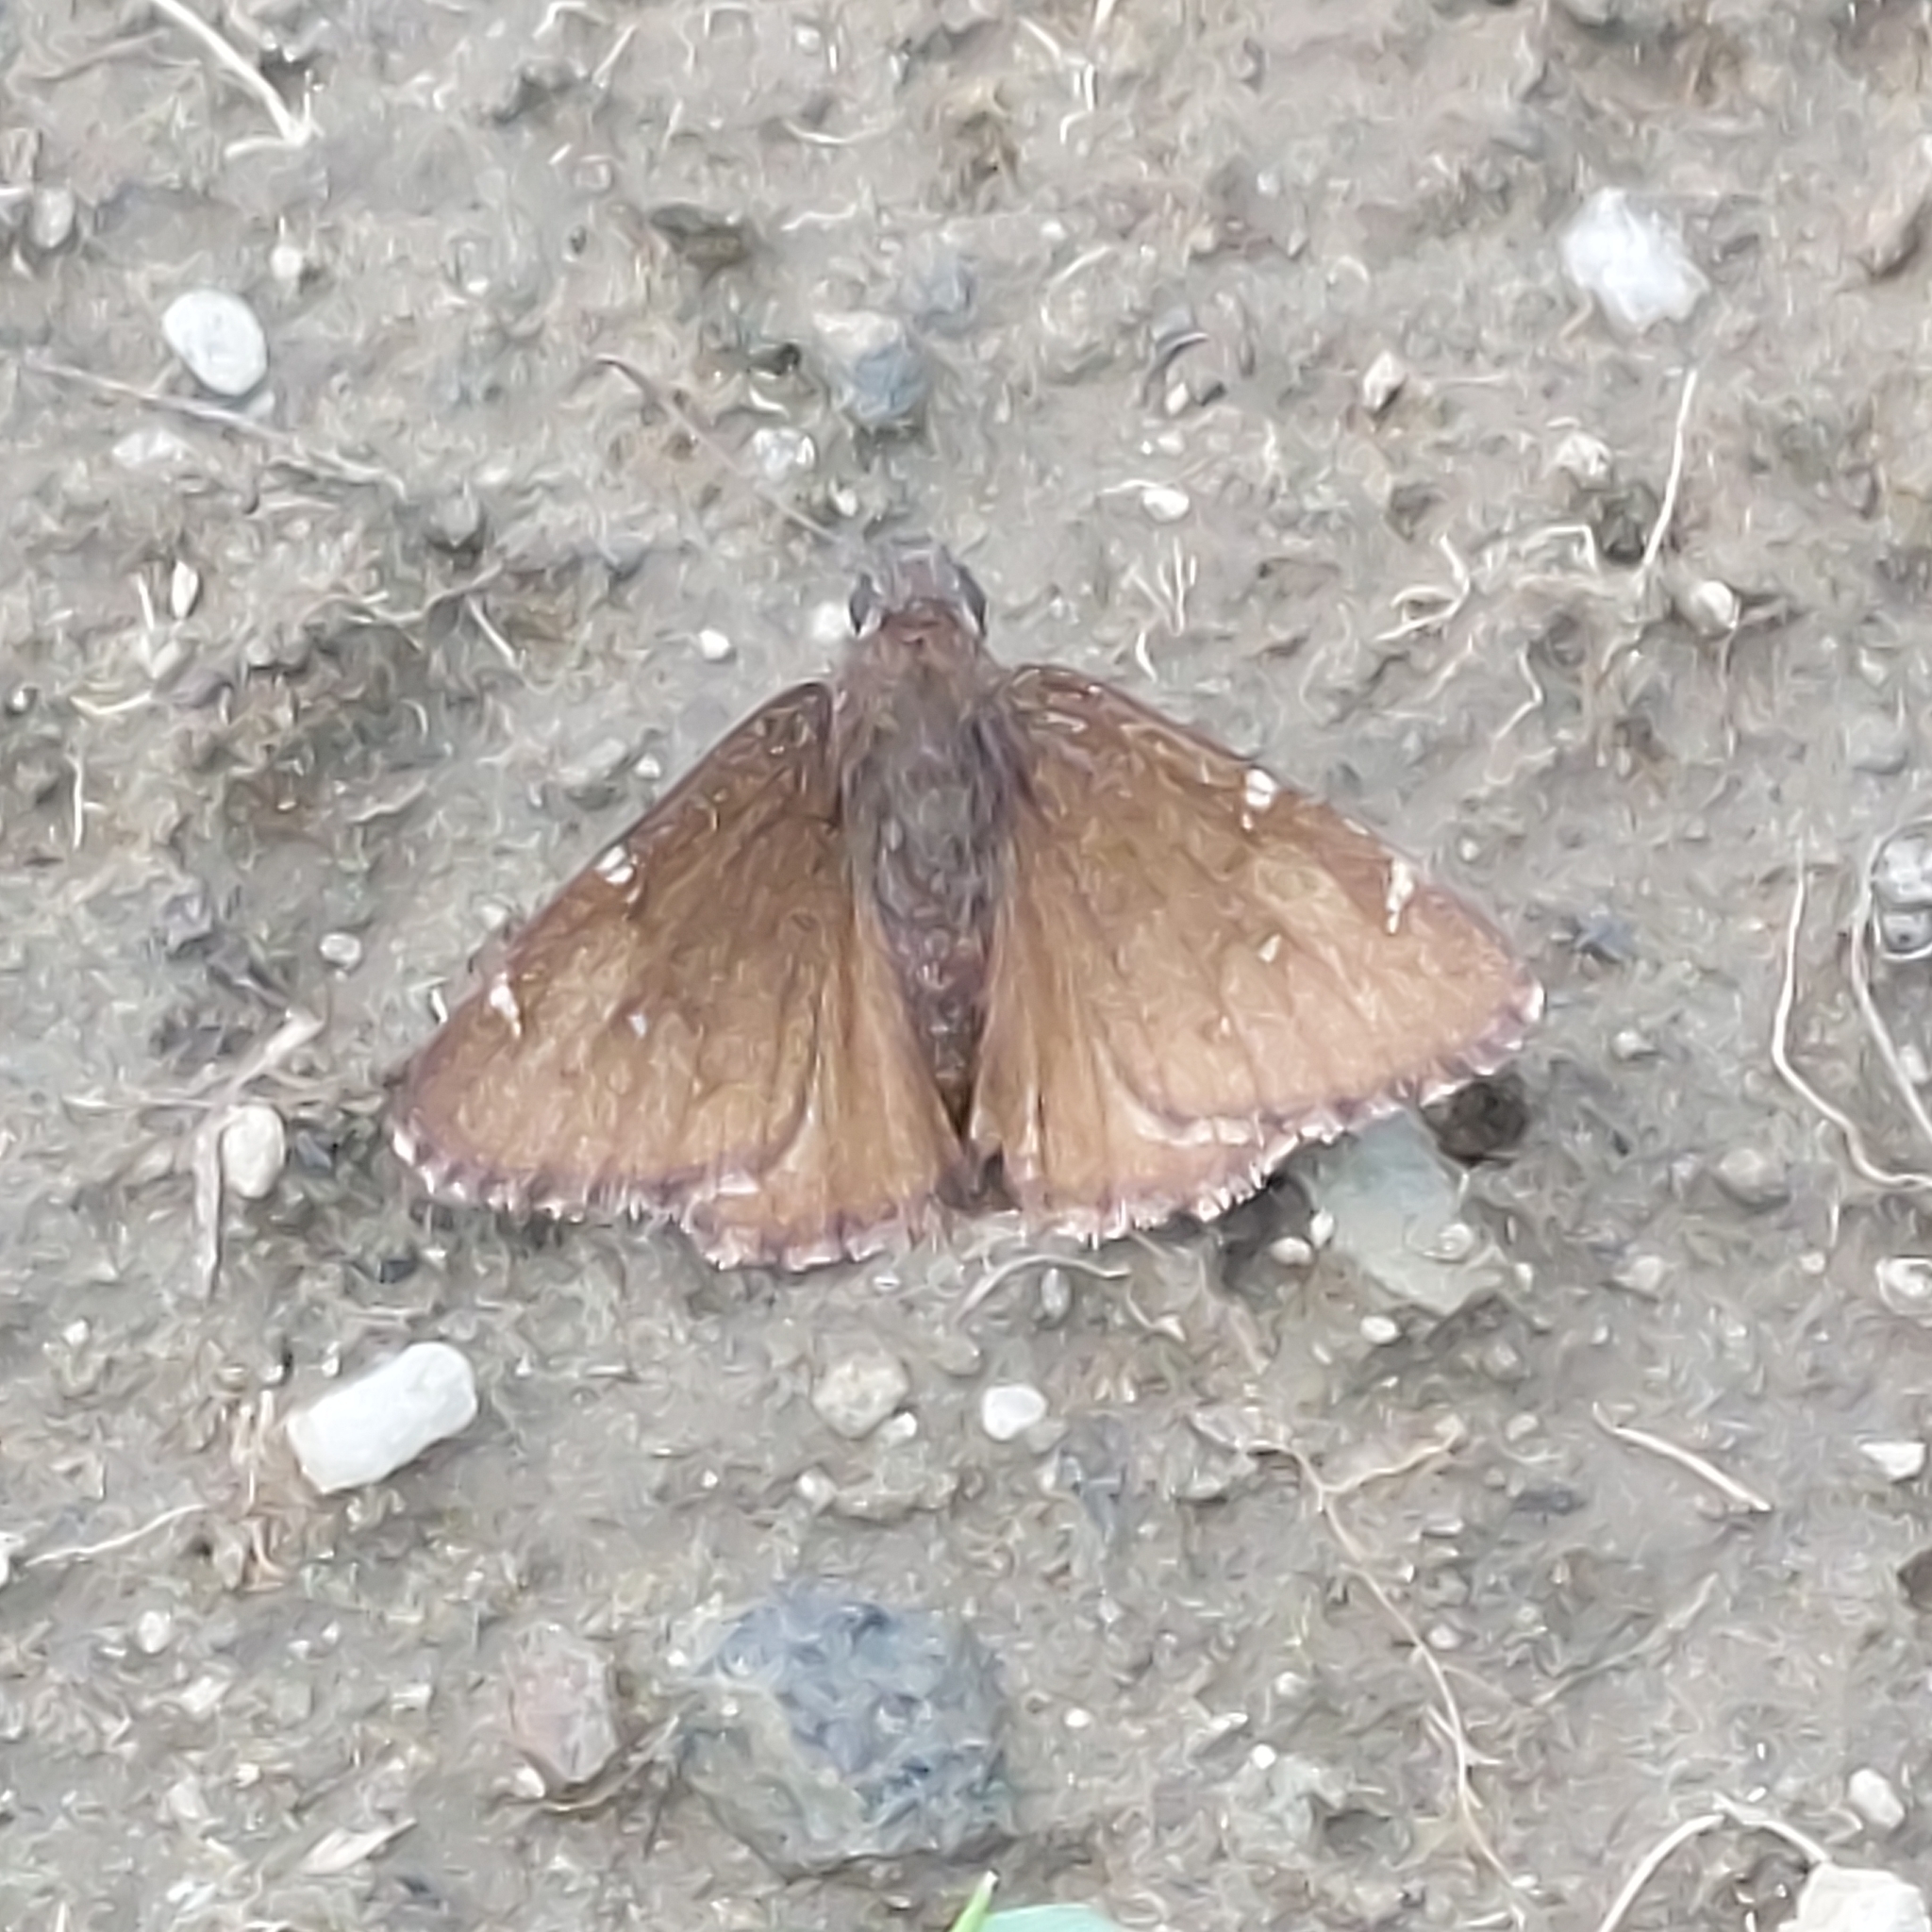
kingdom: Animalia
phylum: Arthropoda
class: Insecta
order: Lepidoptera
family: Hesperiidae
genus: Thorybes
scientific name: Thorybes pylades
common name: Northern cloudywing
